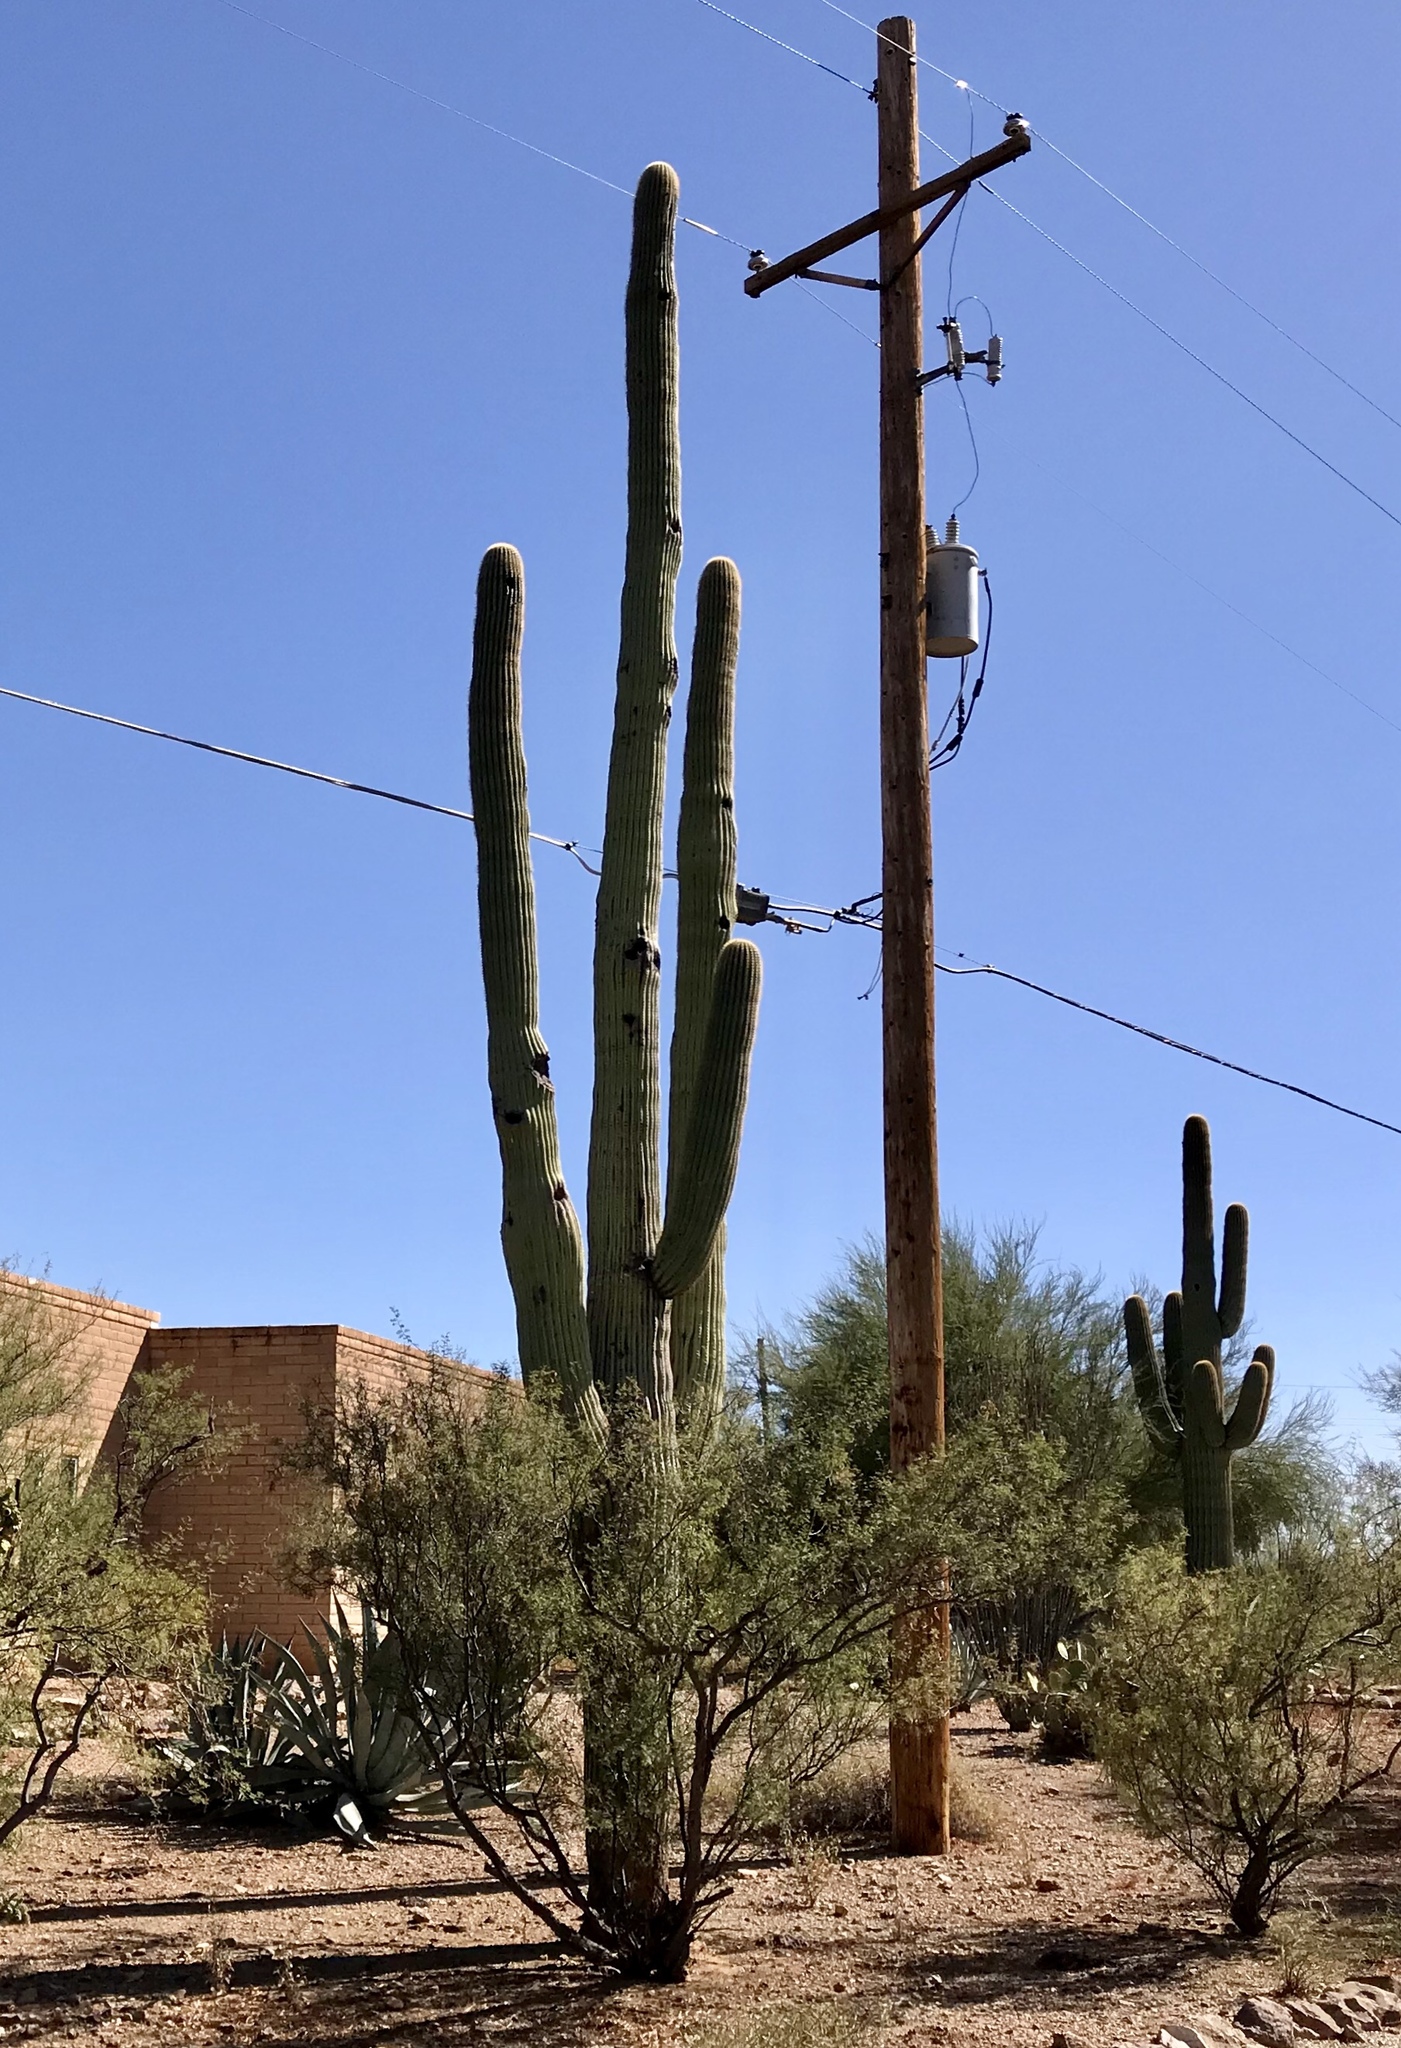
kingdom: Plantae
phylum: Tracheophyta
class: Magnoliopsida
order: Caryophyllales
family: Cactaceae
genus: Carnegiea
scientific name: Carnegiea gigantea
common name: Saguaro
